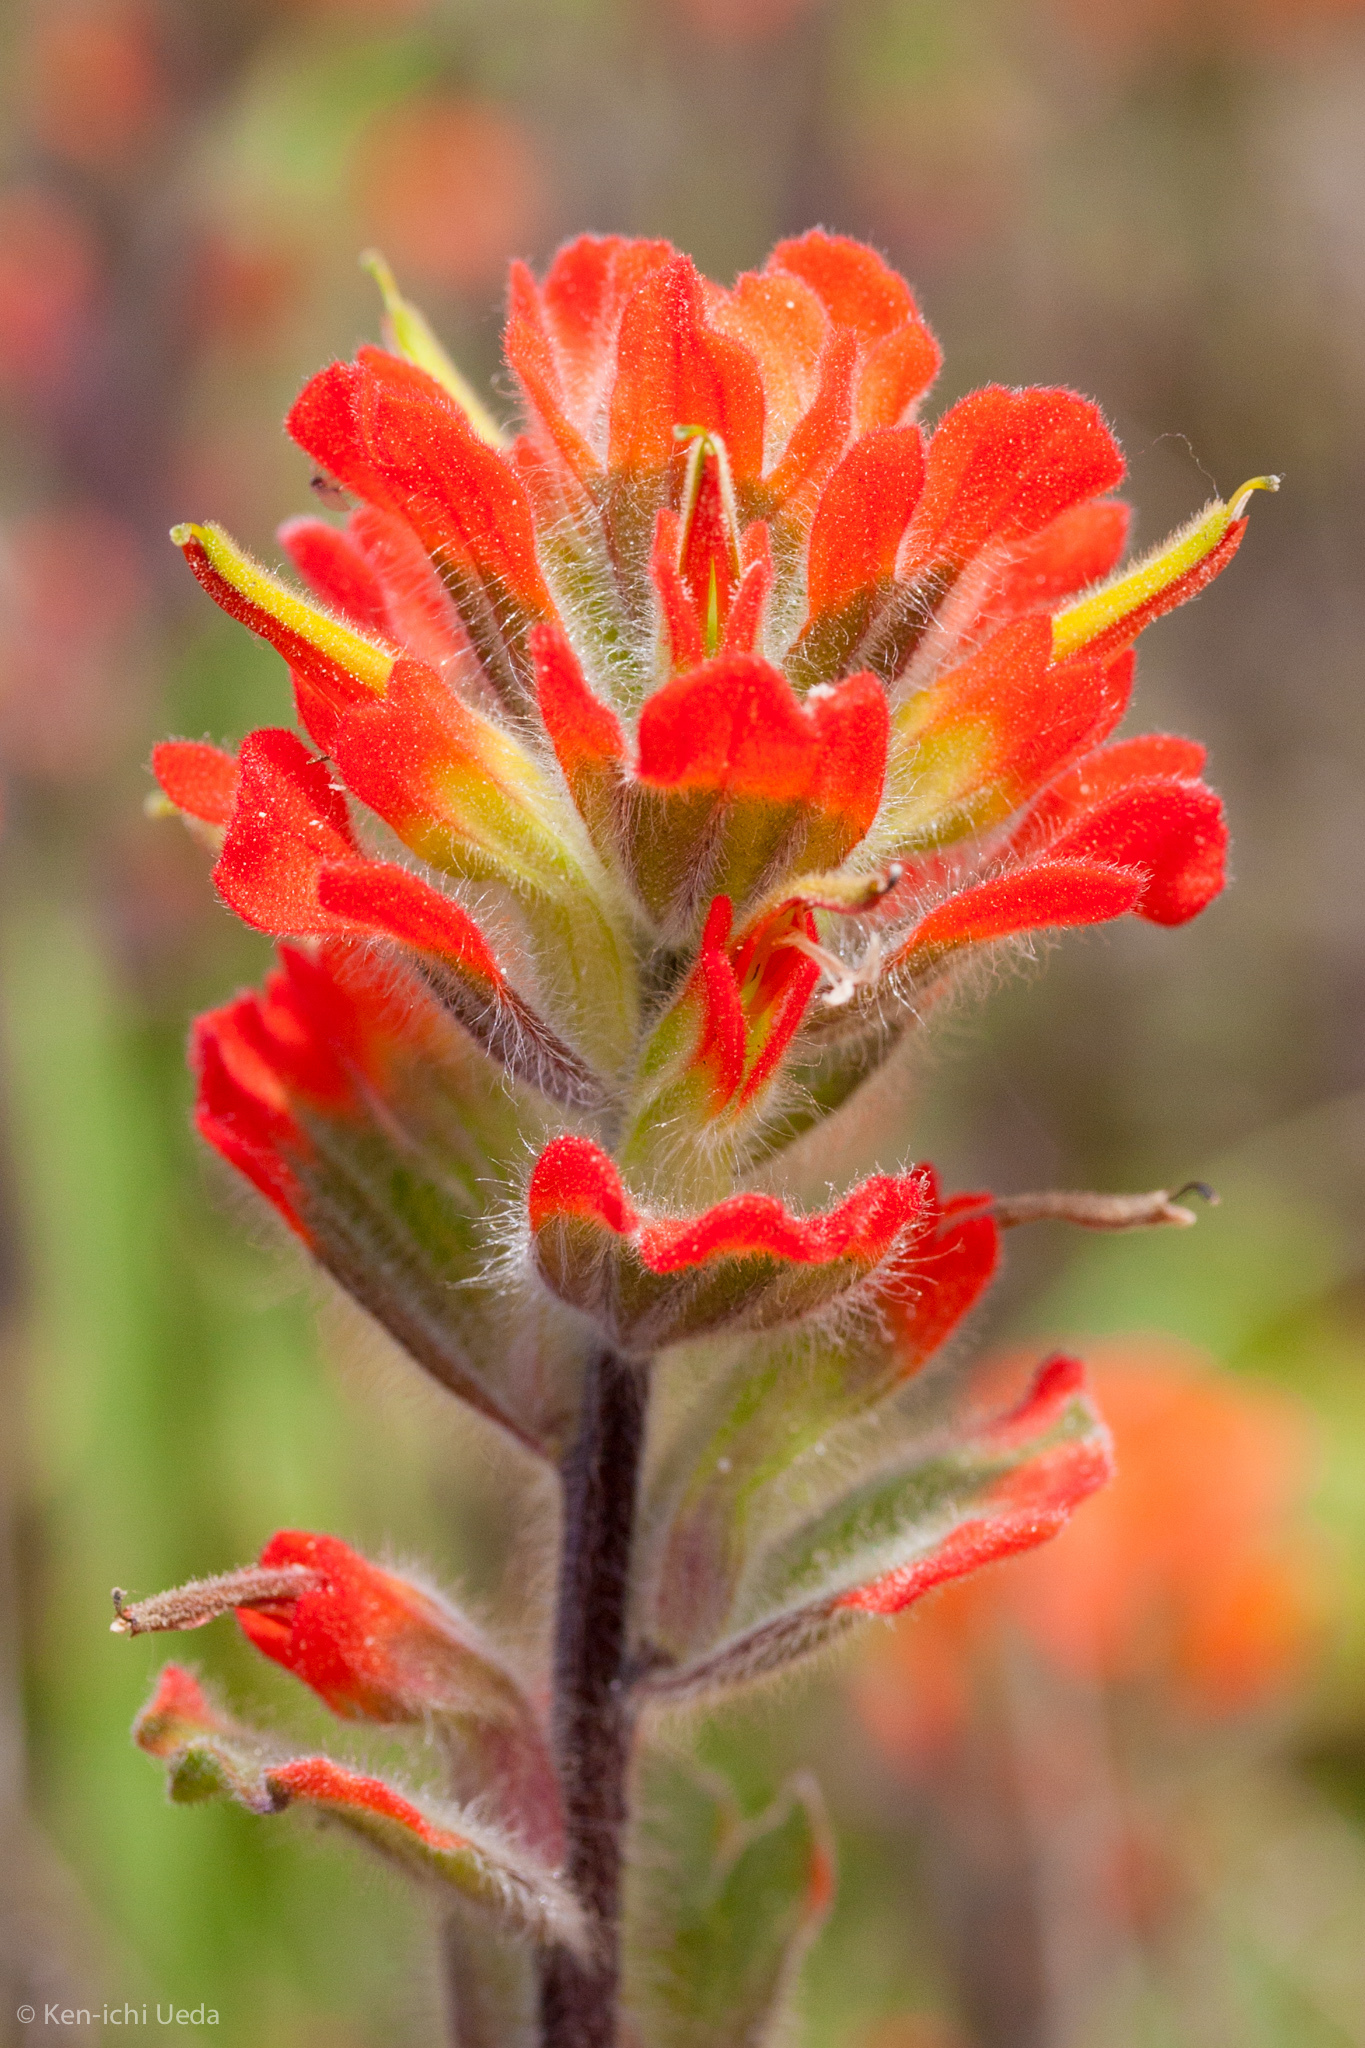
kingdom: Plantae
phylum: Tracheophyta
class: Magnoliopsida
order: Lamiales
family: Orobanchaceae
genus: Castilleja
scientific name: Castilleja affinis
